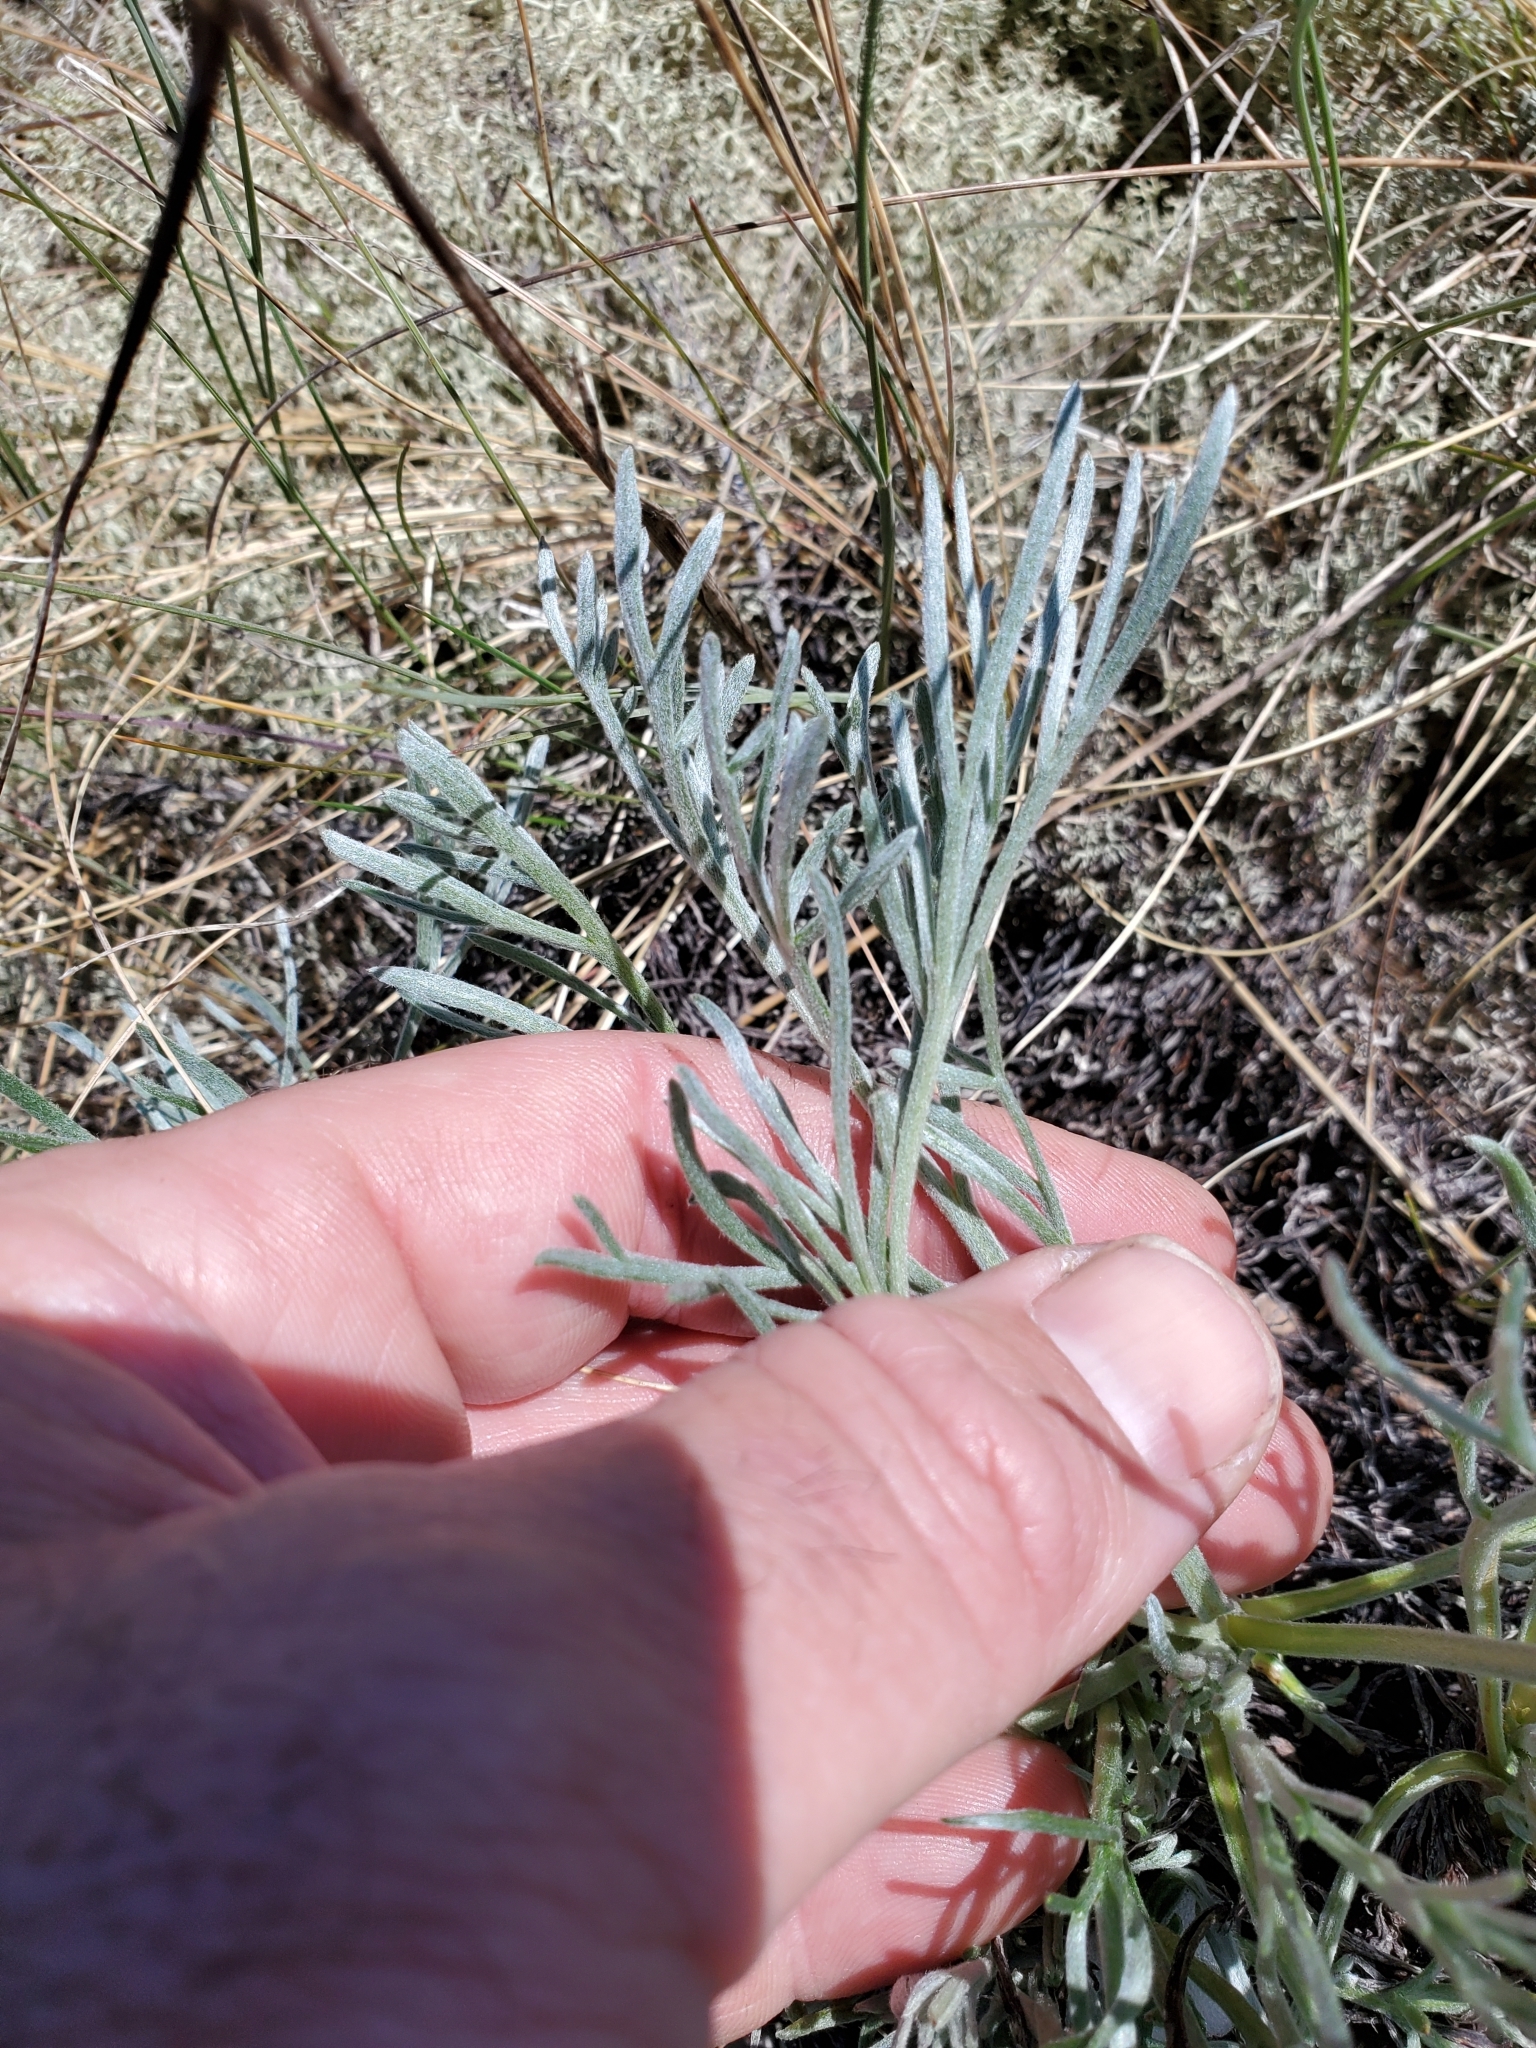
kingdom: Plantae
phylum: Tracheophyta
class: Magnoliopsida
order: Asterales
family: Asteraceae
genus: Artemisia
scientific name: Artemisia campestris
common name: Field wormwood
